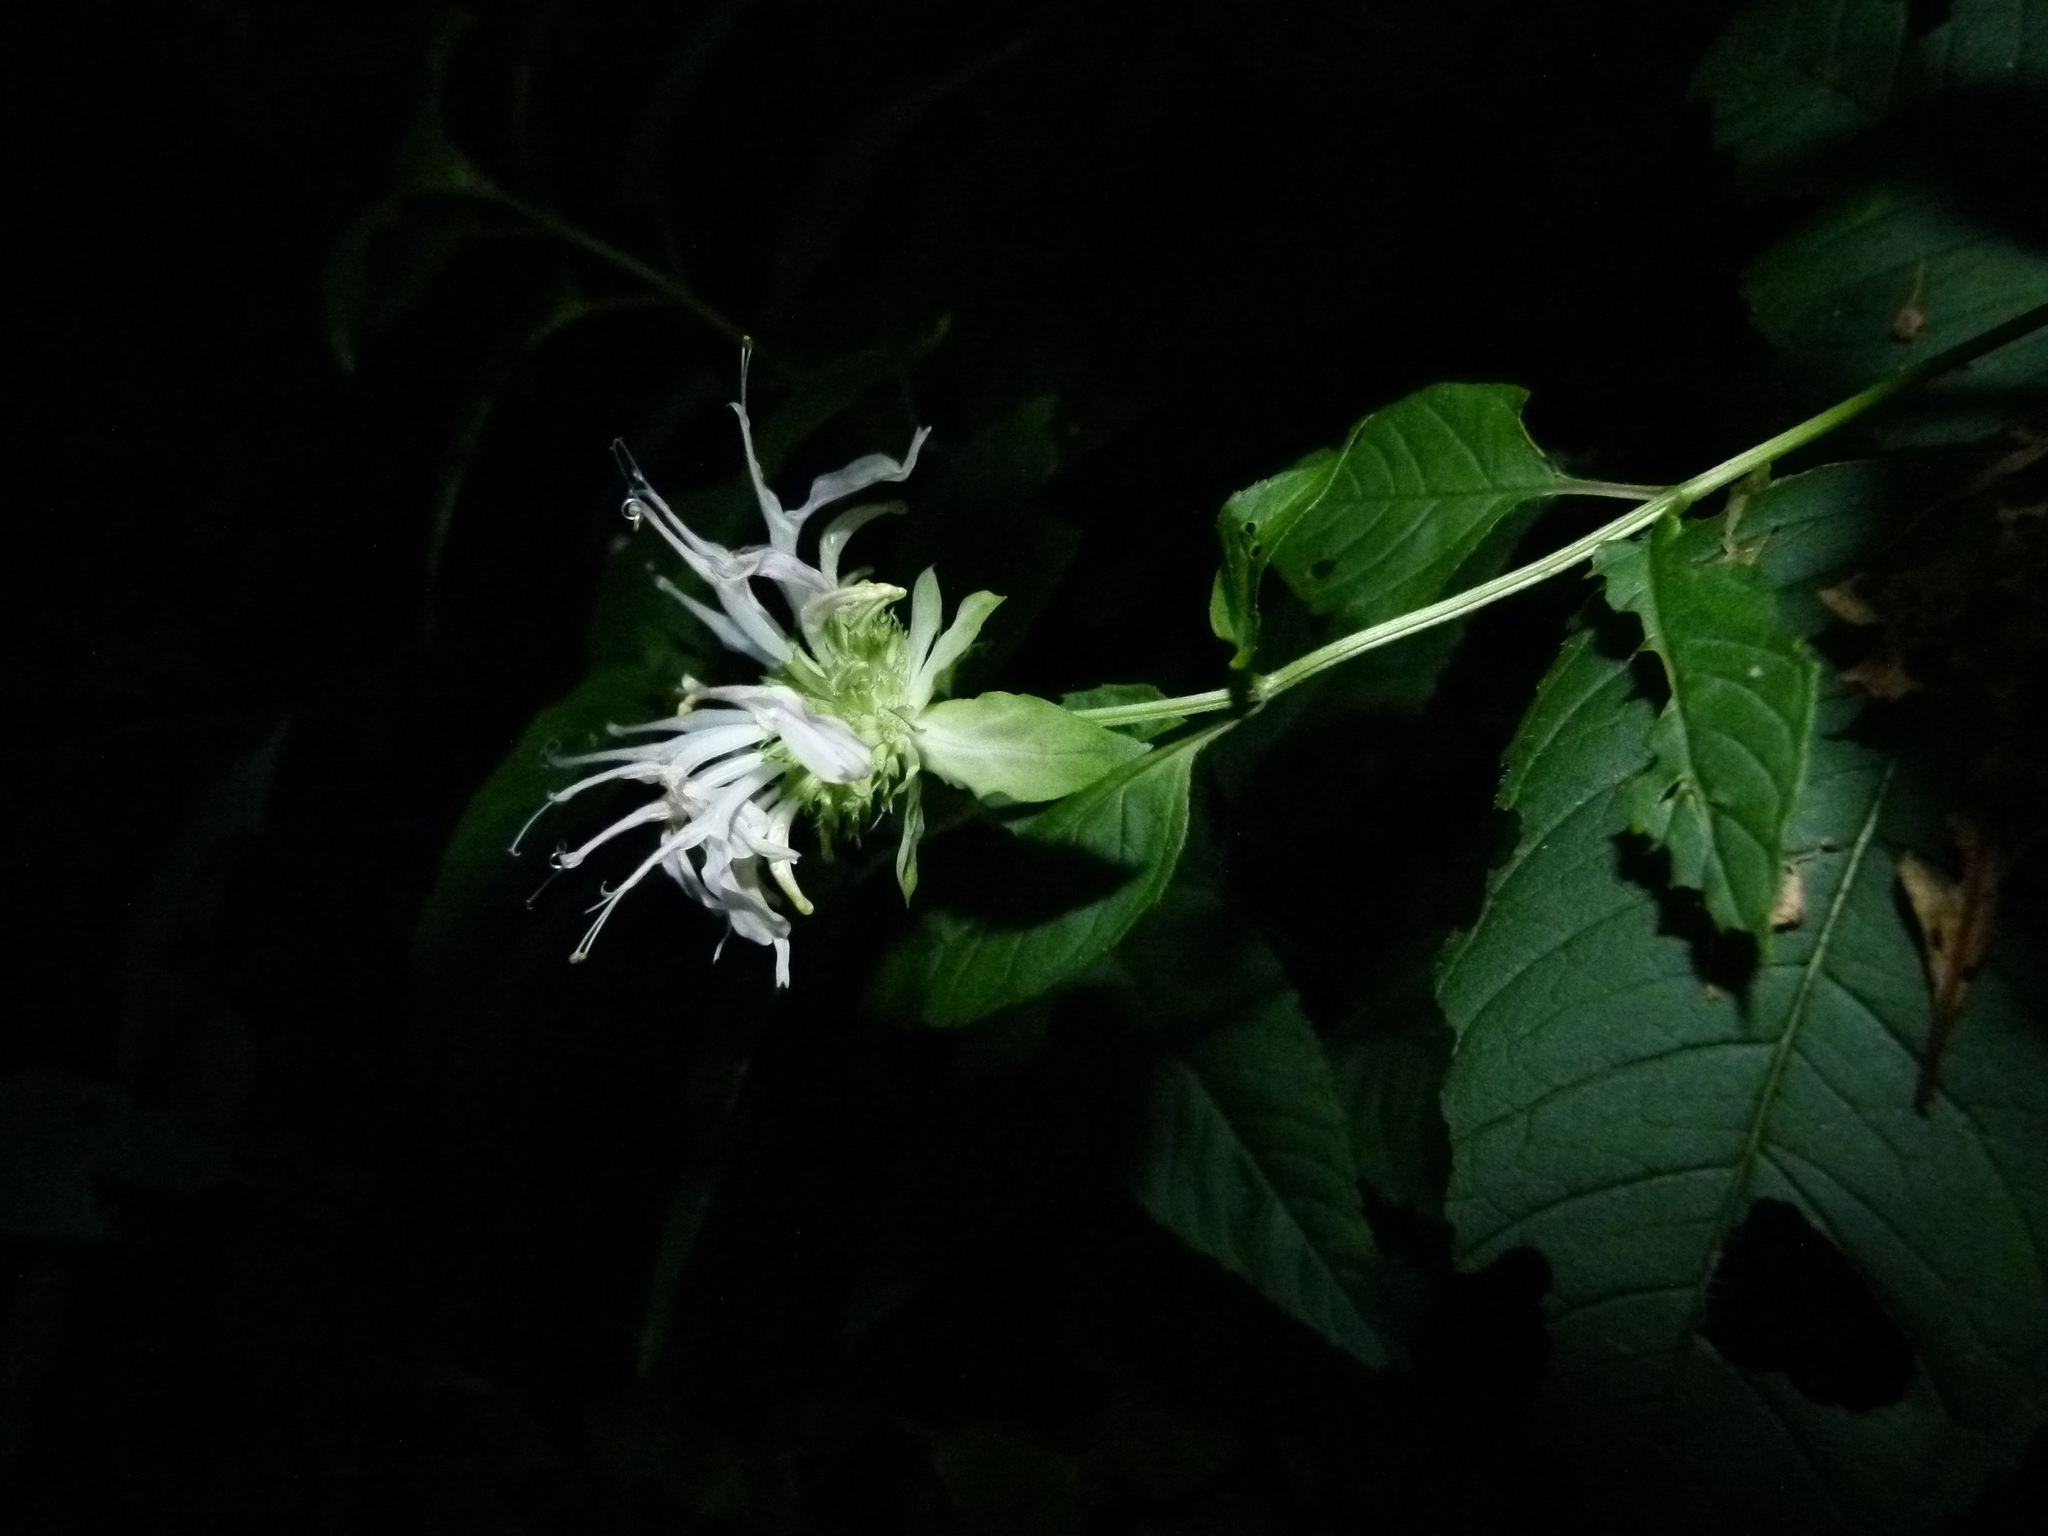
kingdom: Plantae
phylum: Tracheophyta
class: Magnoliopsida
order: Lamiales
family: Lamiaceae
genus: Monarda
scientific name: Monarda fistulosa
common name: Purple beebalm
